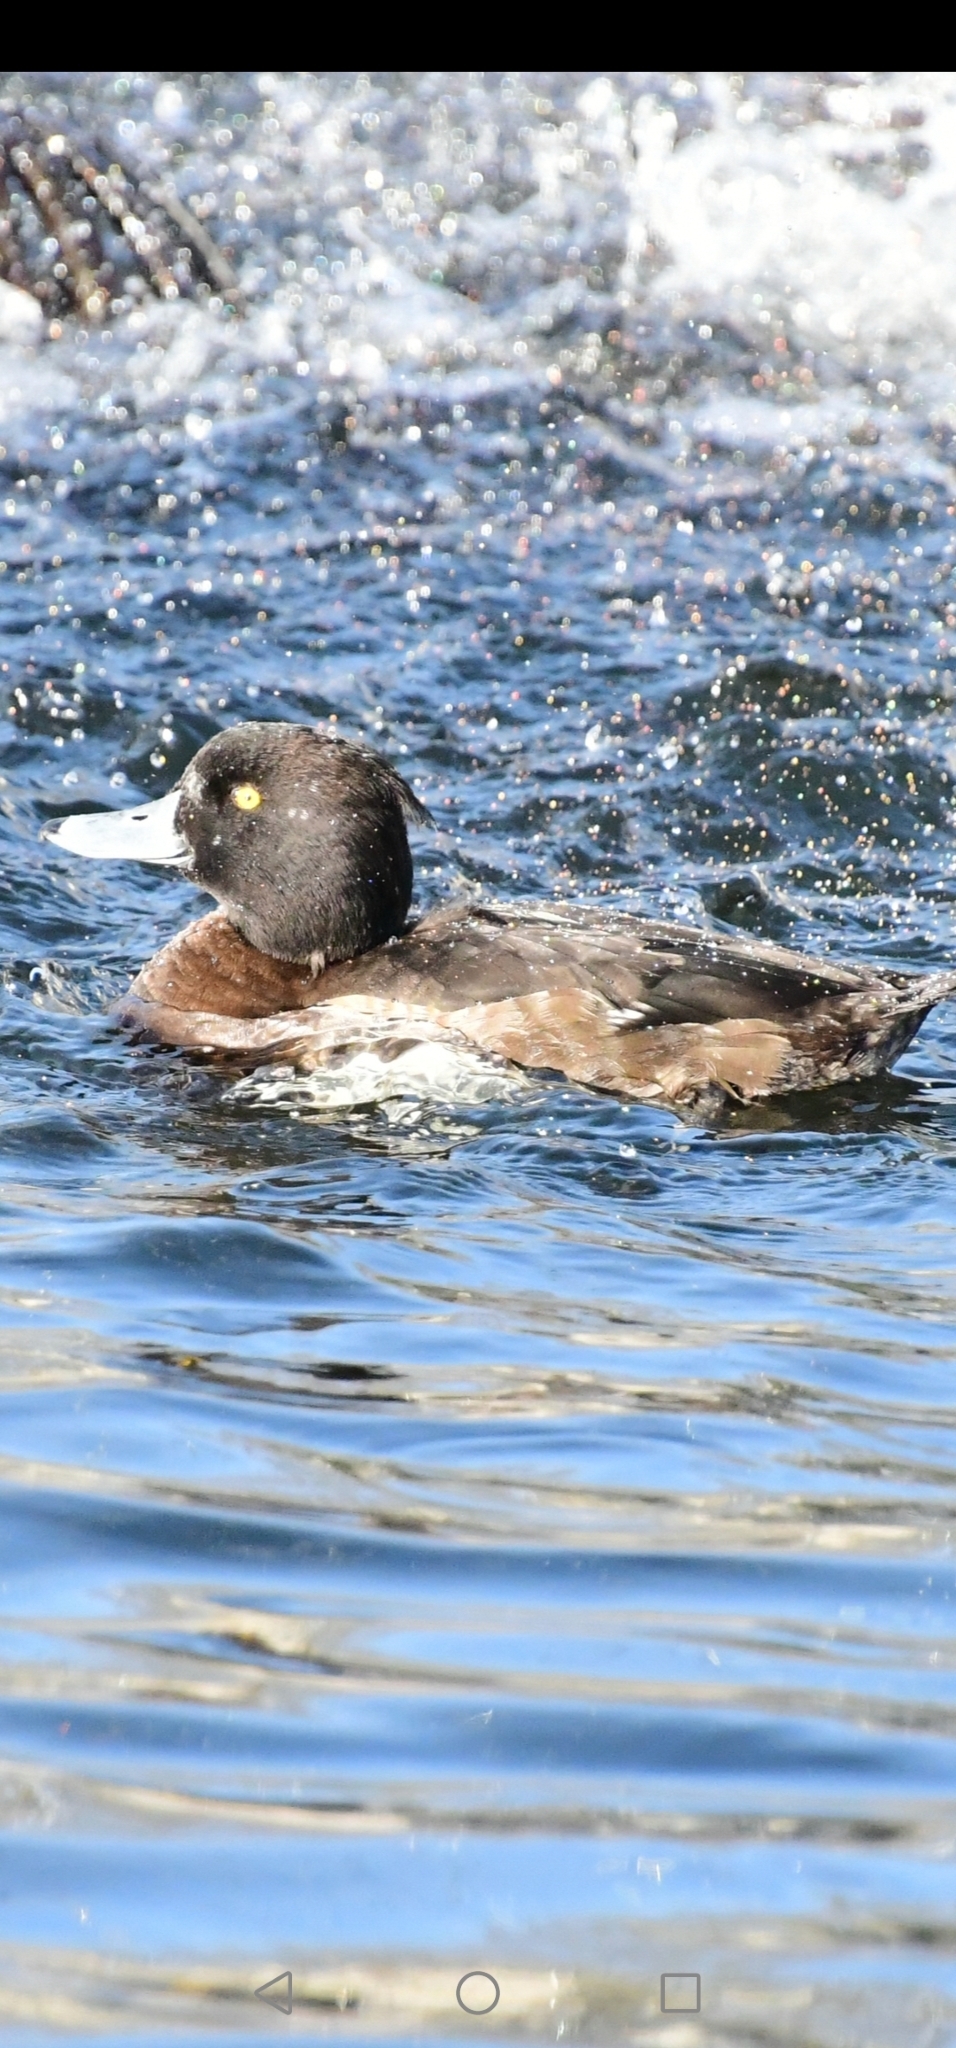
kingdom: Animalia
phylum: Chordata
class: Aves
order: Anseriformes
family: Anatidae
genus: Aythya
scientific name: Aythya fuligula
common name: Tufted duck
